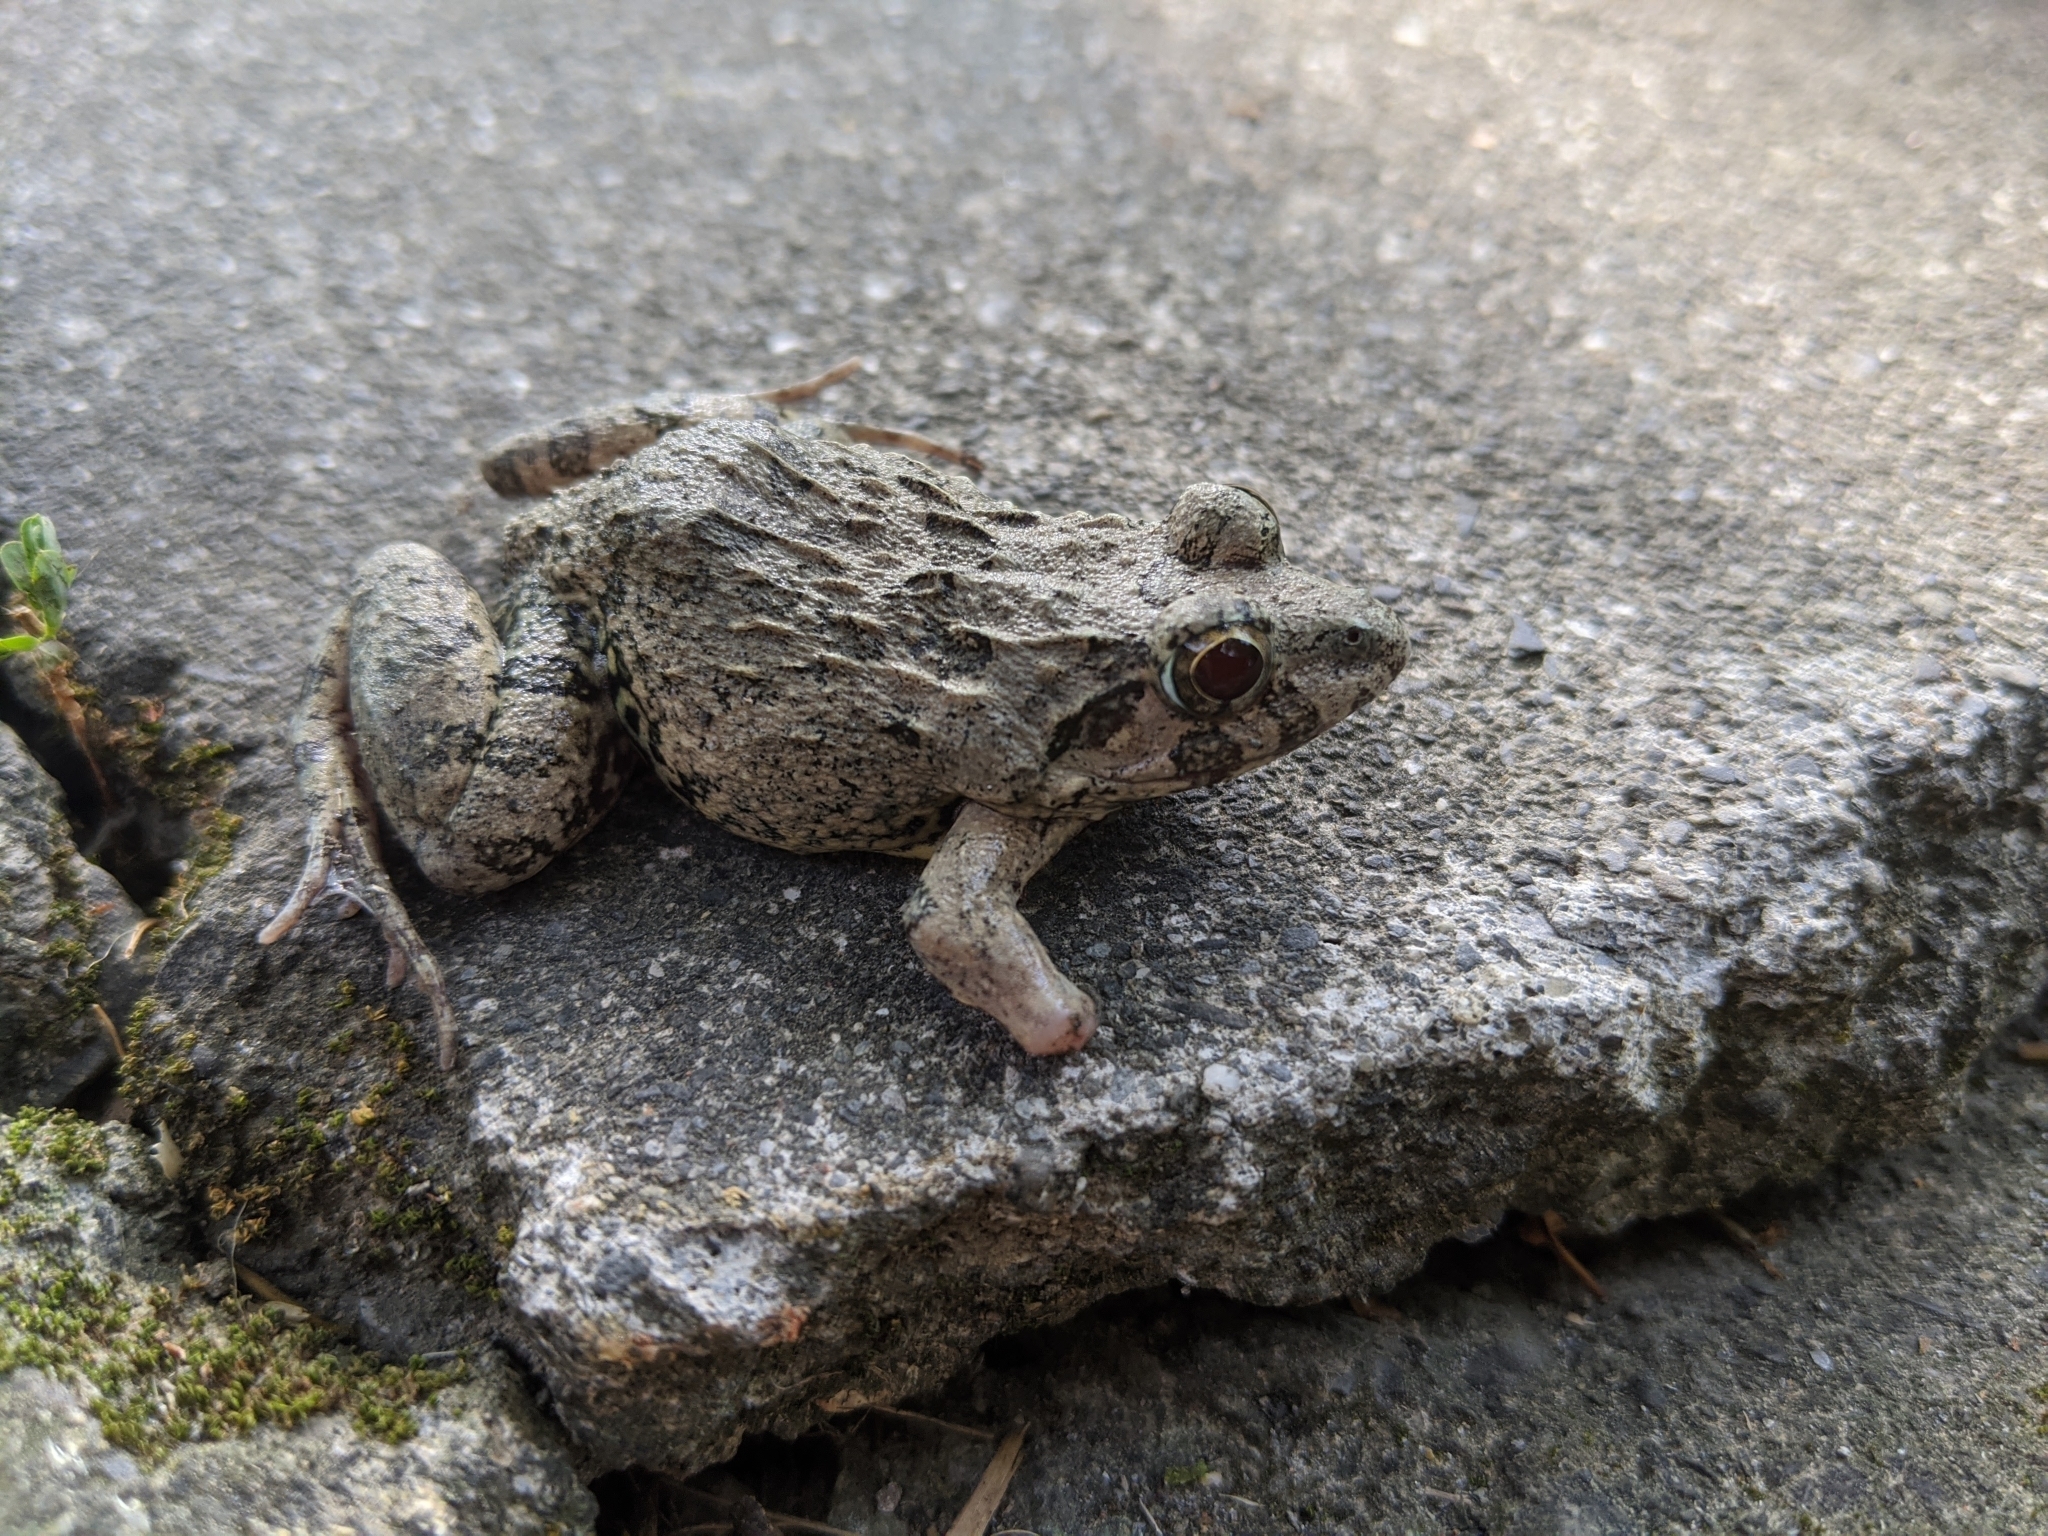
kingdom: Animalia
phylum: Chordata
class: Amphibia
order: Anura
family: Dicroglossidae
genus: Fejervarya
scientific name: Fejervarya limnocharis
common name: Asian grass frog/common pond frog/field frog/grass frog/indian rice frog
